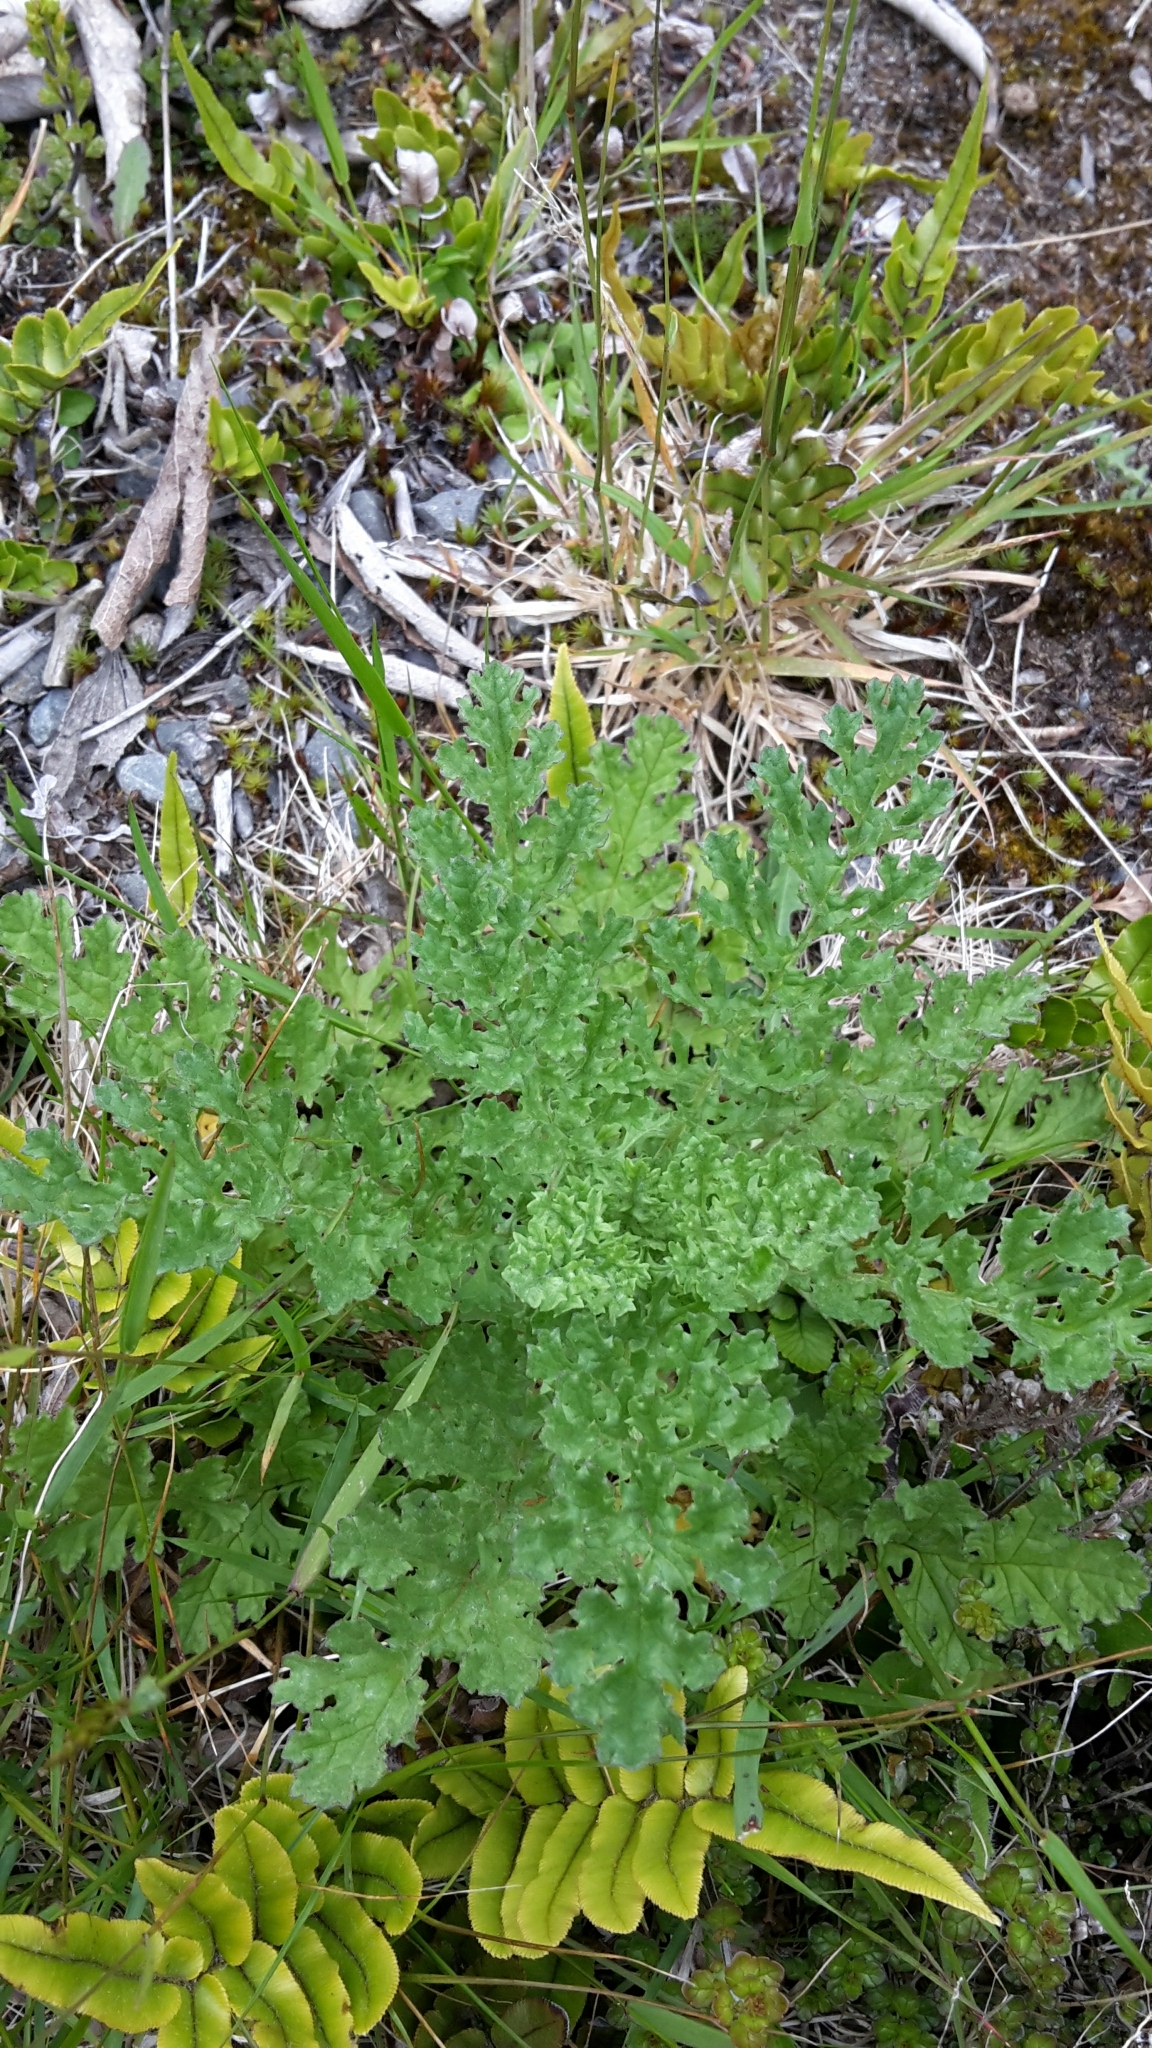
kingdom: Plantae
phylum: Tracheophyta
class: Magnoliopsida
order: Asterales
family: Asteraceae
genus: Jacobaea
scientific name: Jacobaea vulgaris
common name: Stinking willie
